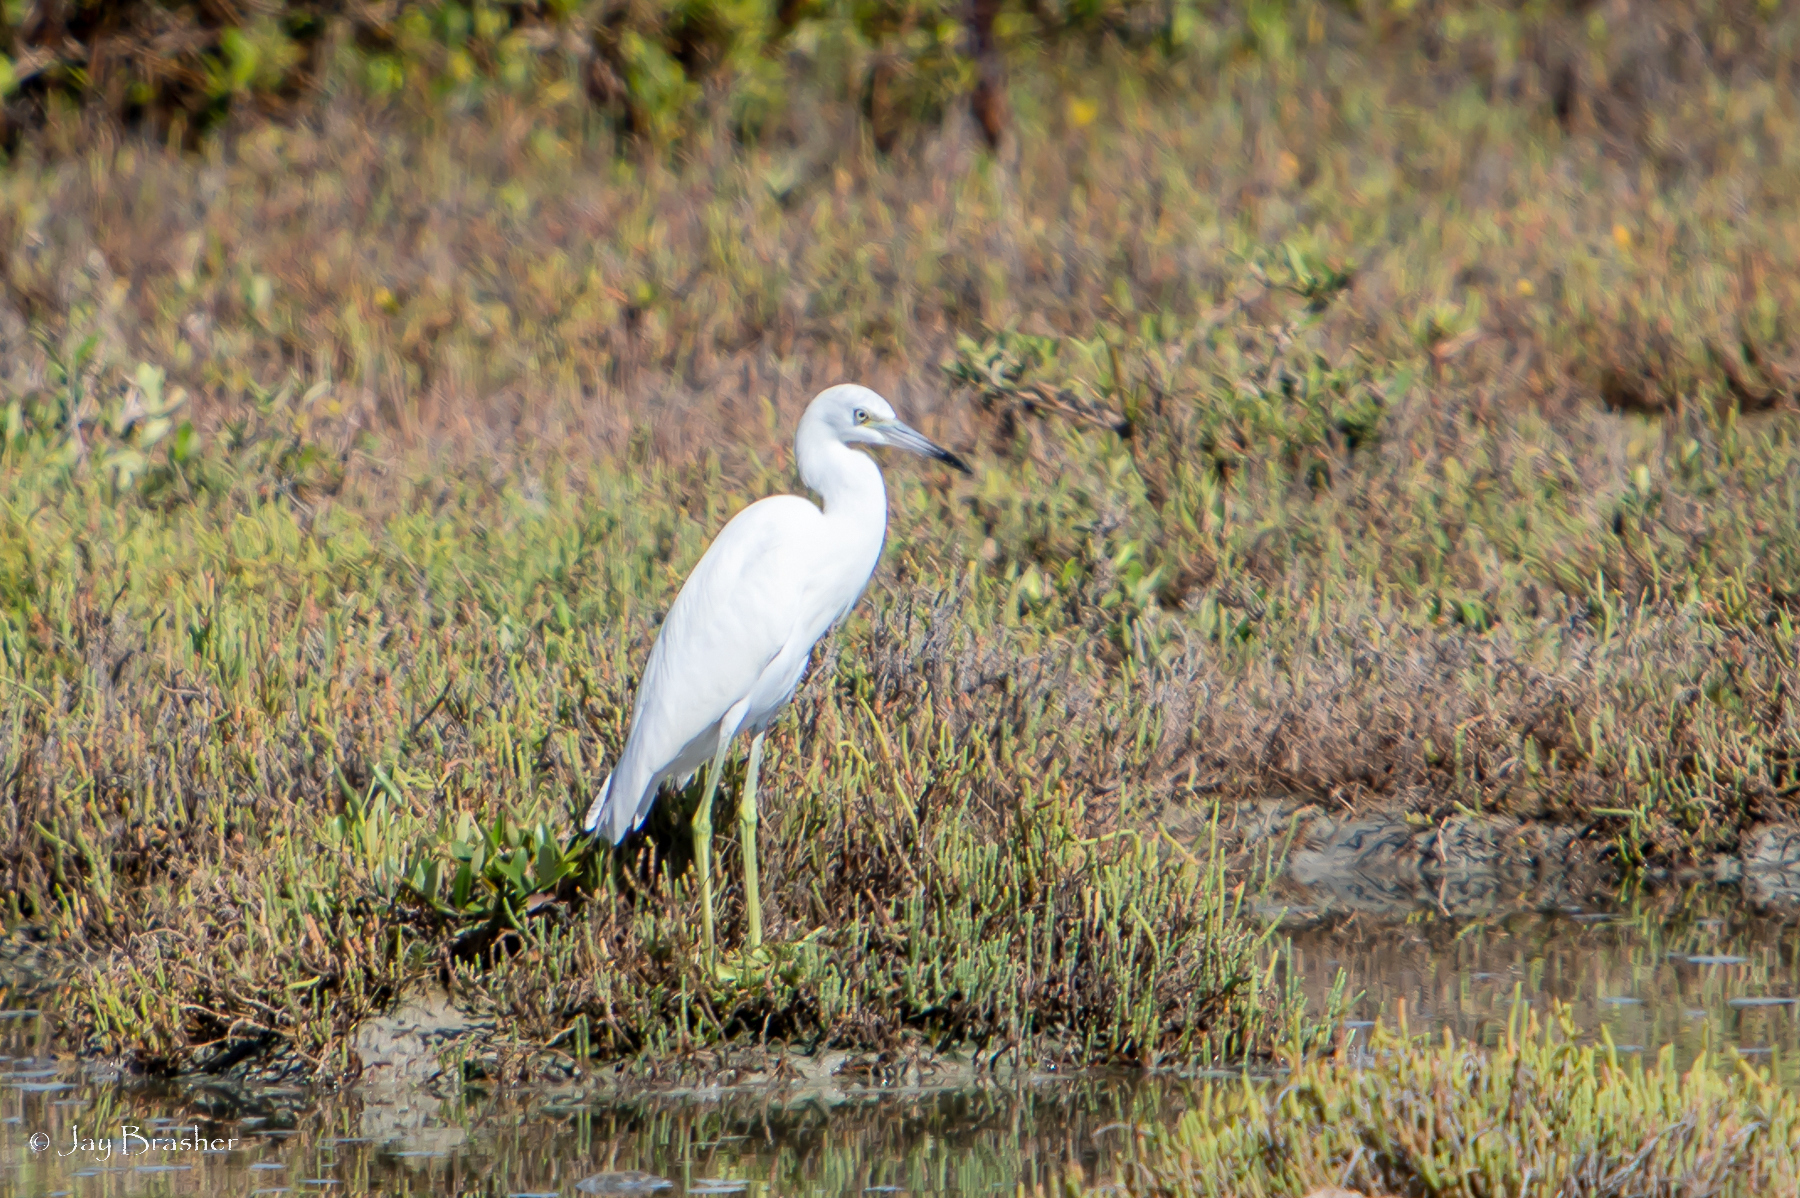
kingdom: Animalia
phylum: Chordata
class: Aves
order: Pelecaniformes
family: Ardeidae
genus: Egretta
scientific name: Egretta caerulea
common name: Little blue heron
